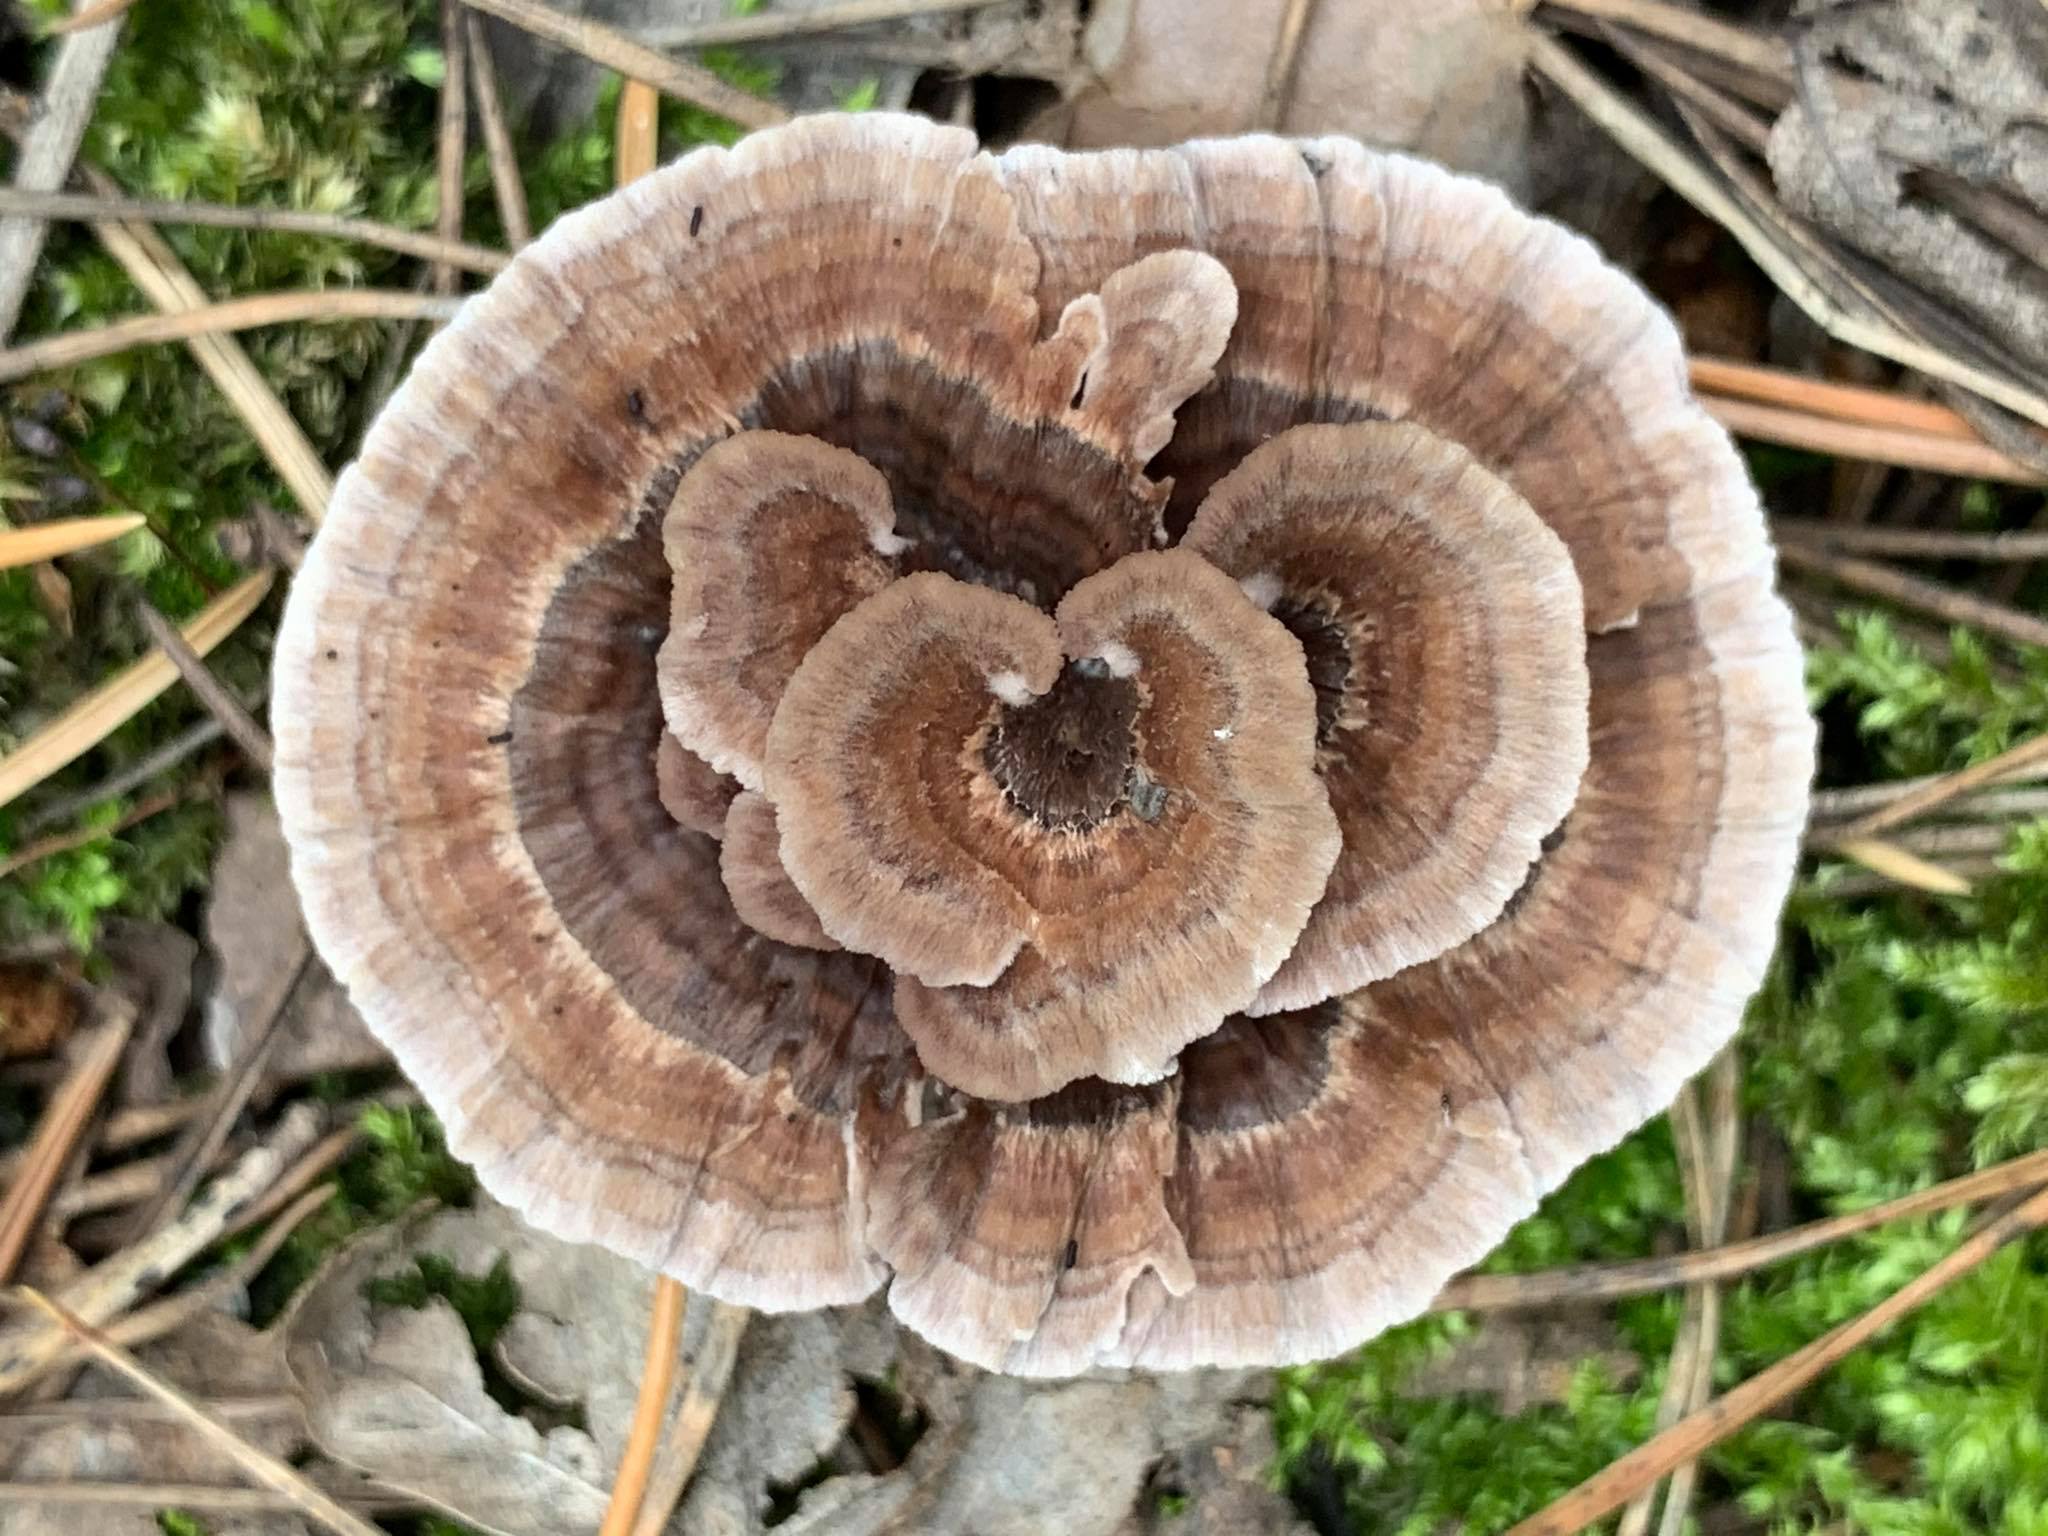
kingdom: Fungi
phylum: Basidiomycota
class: Agaricomycetes
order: Thelephorales
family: Thelephoraceae
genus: Thelephora
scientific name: Thelephora terrestris
